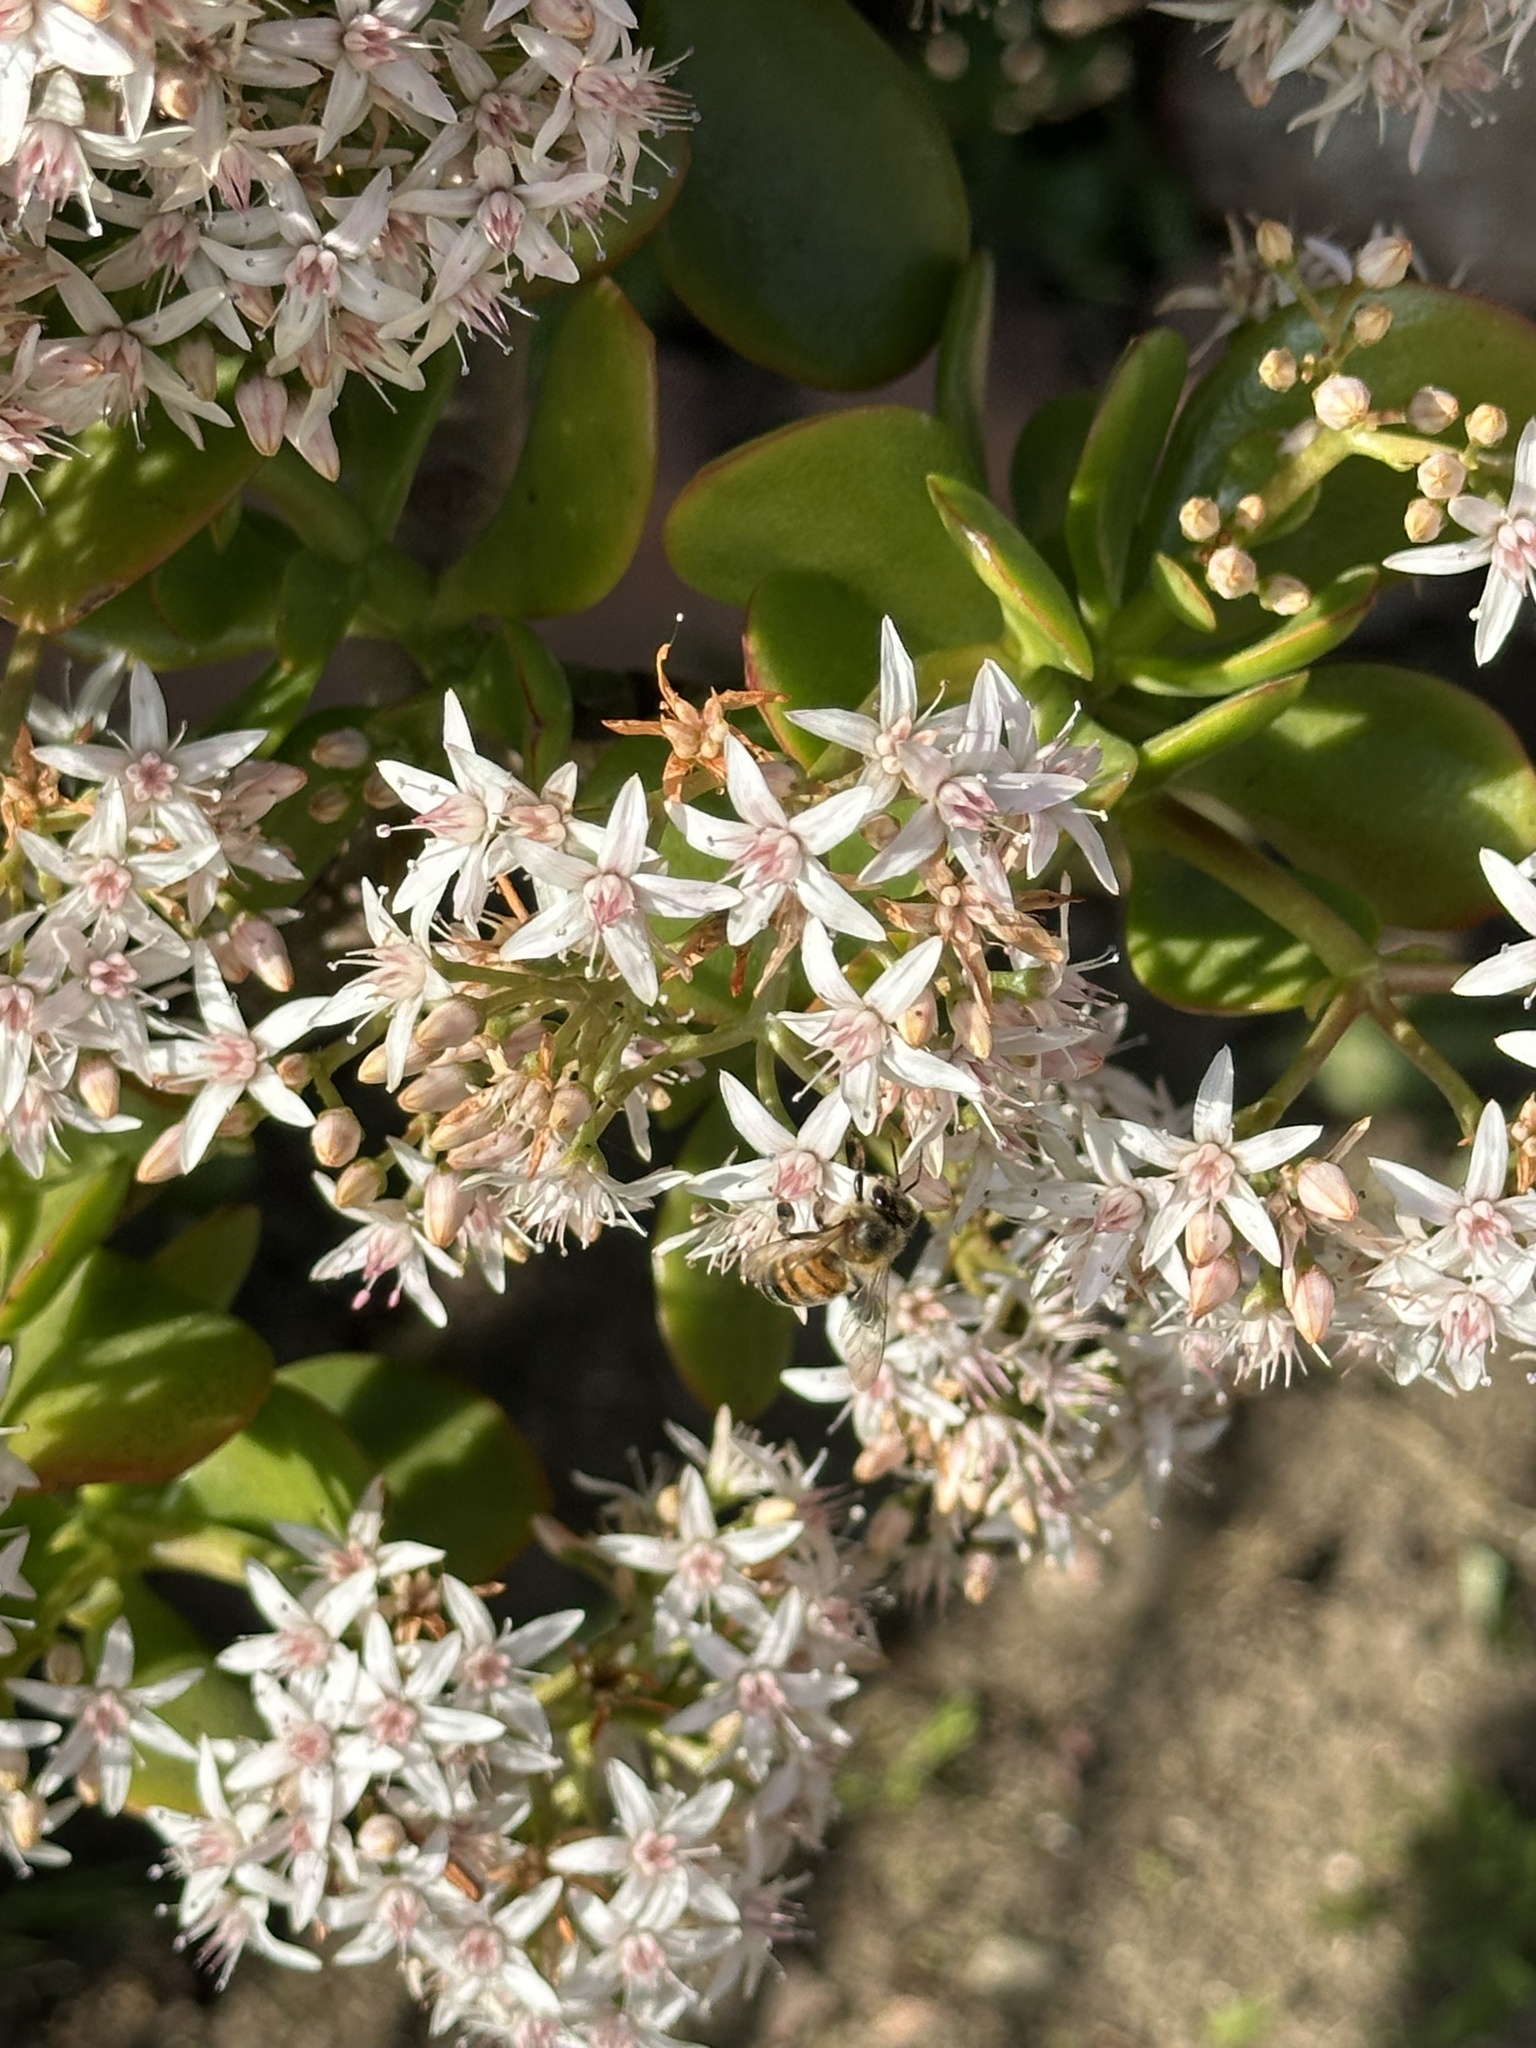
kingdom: Animalia
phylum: Arthropoda
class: Insecta
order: Hymenoptera
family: Apidae
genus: Apis
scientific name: Apis mellifera
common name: Honey bee
